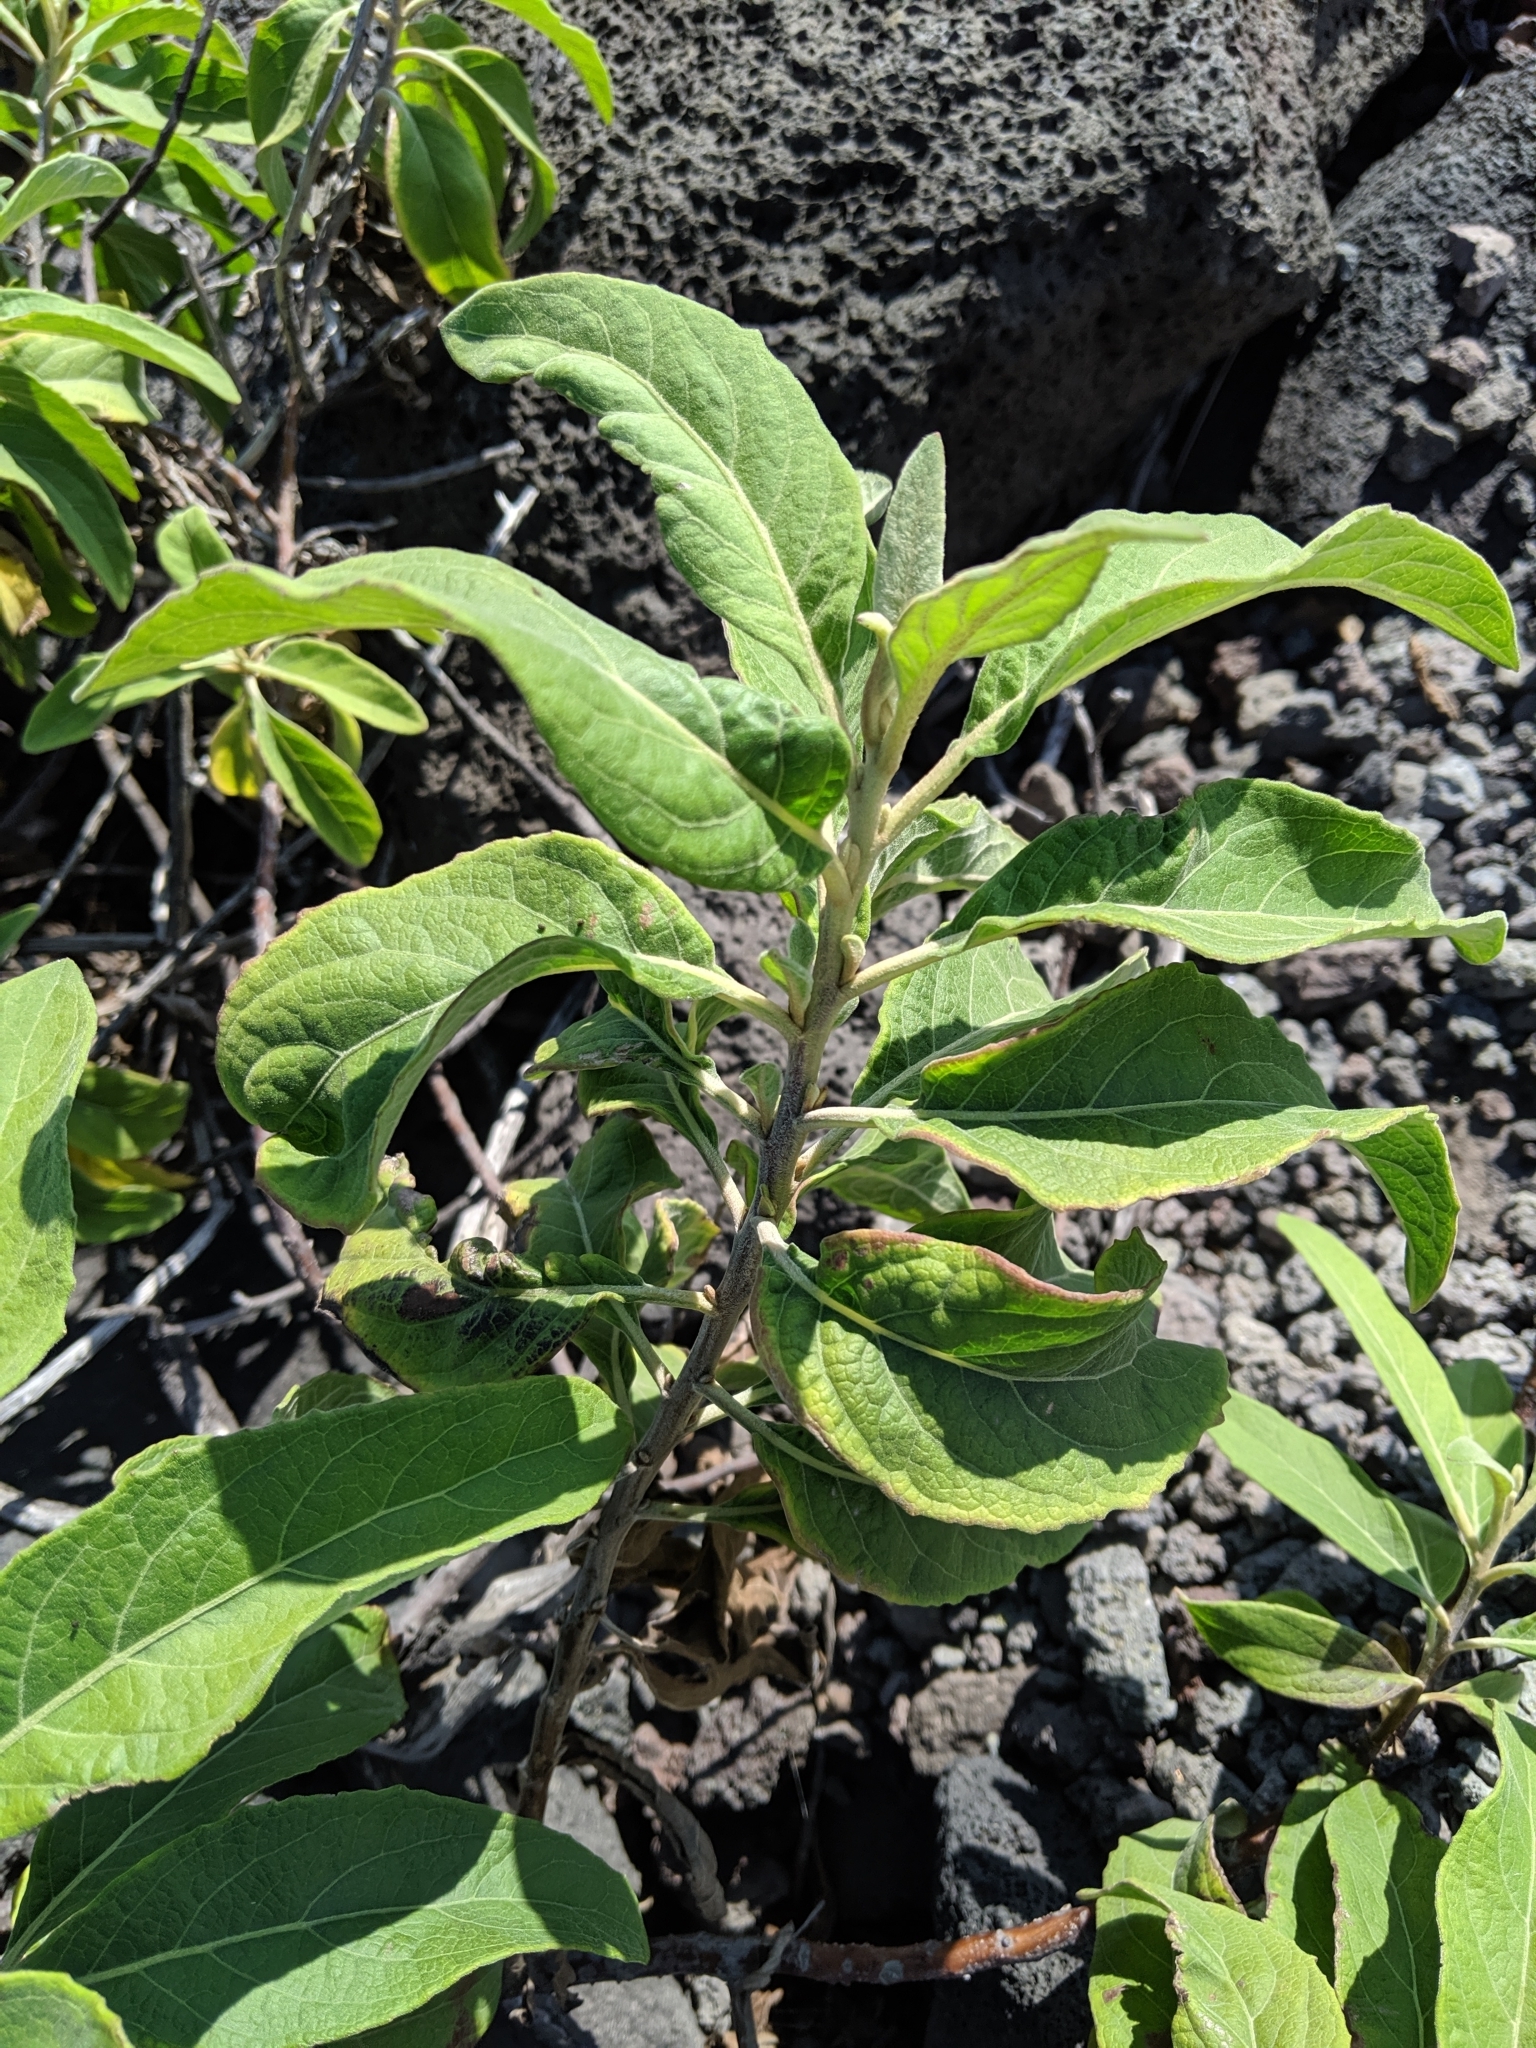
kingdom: Plantae
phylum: Tracheophyta
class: Magnoliopsida
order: Asterales
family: Asteraceae
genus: Pluchea
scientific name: Pluchea carolinensis
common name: Marsh fleabane
